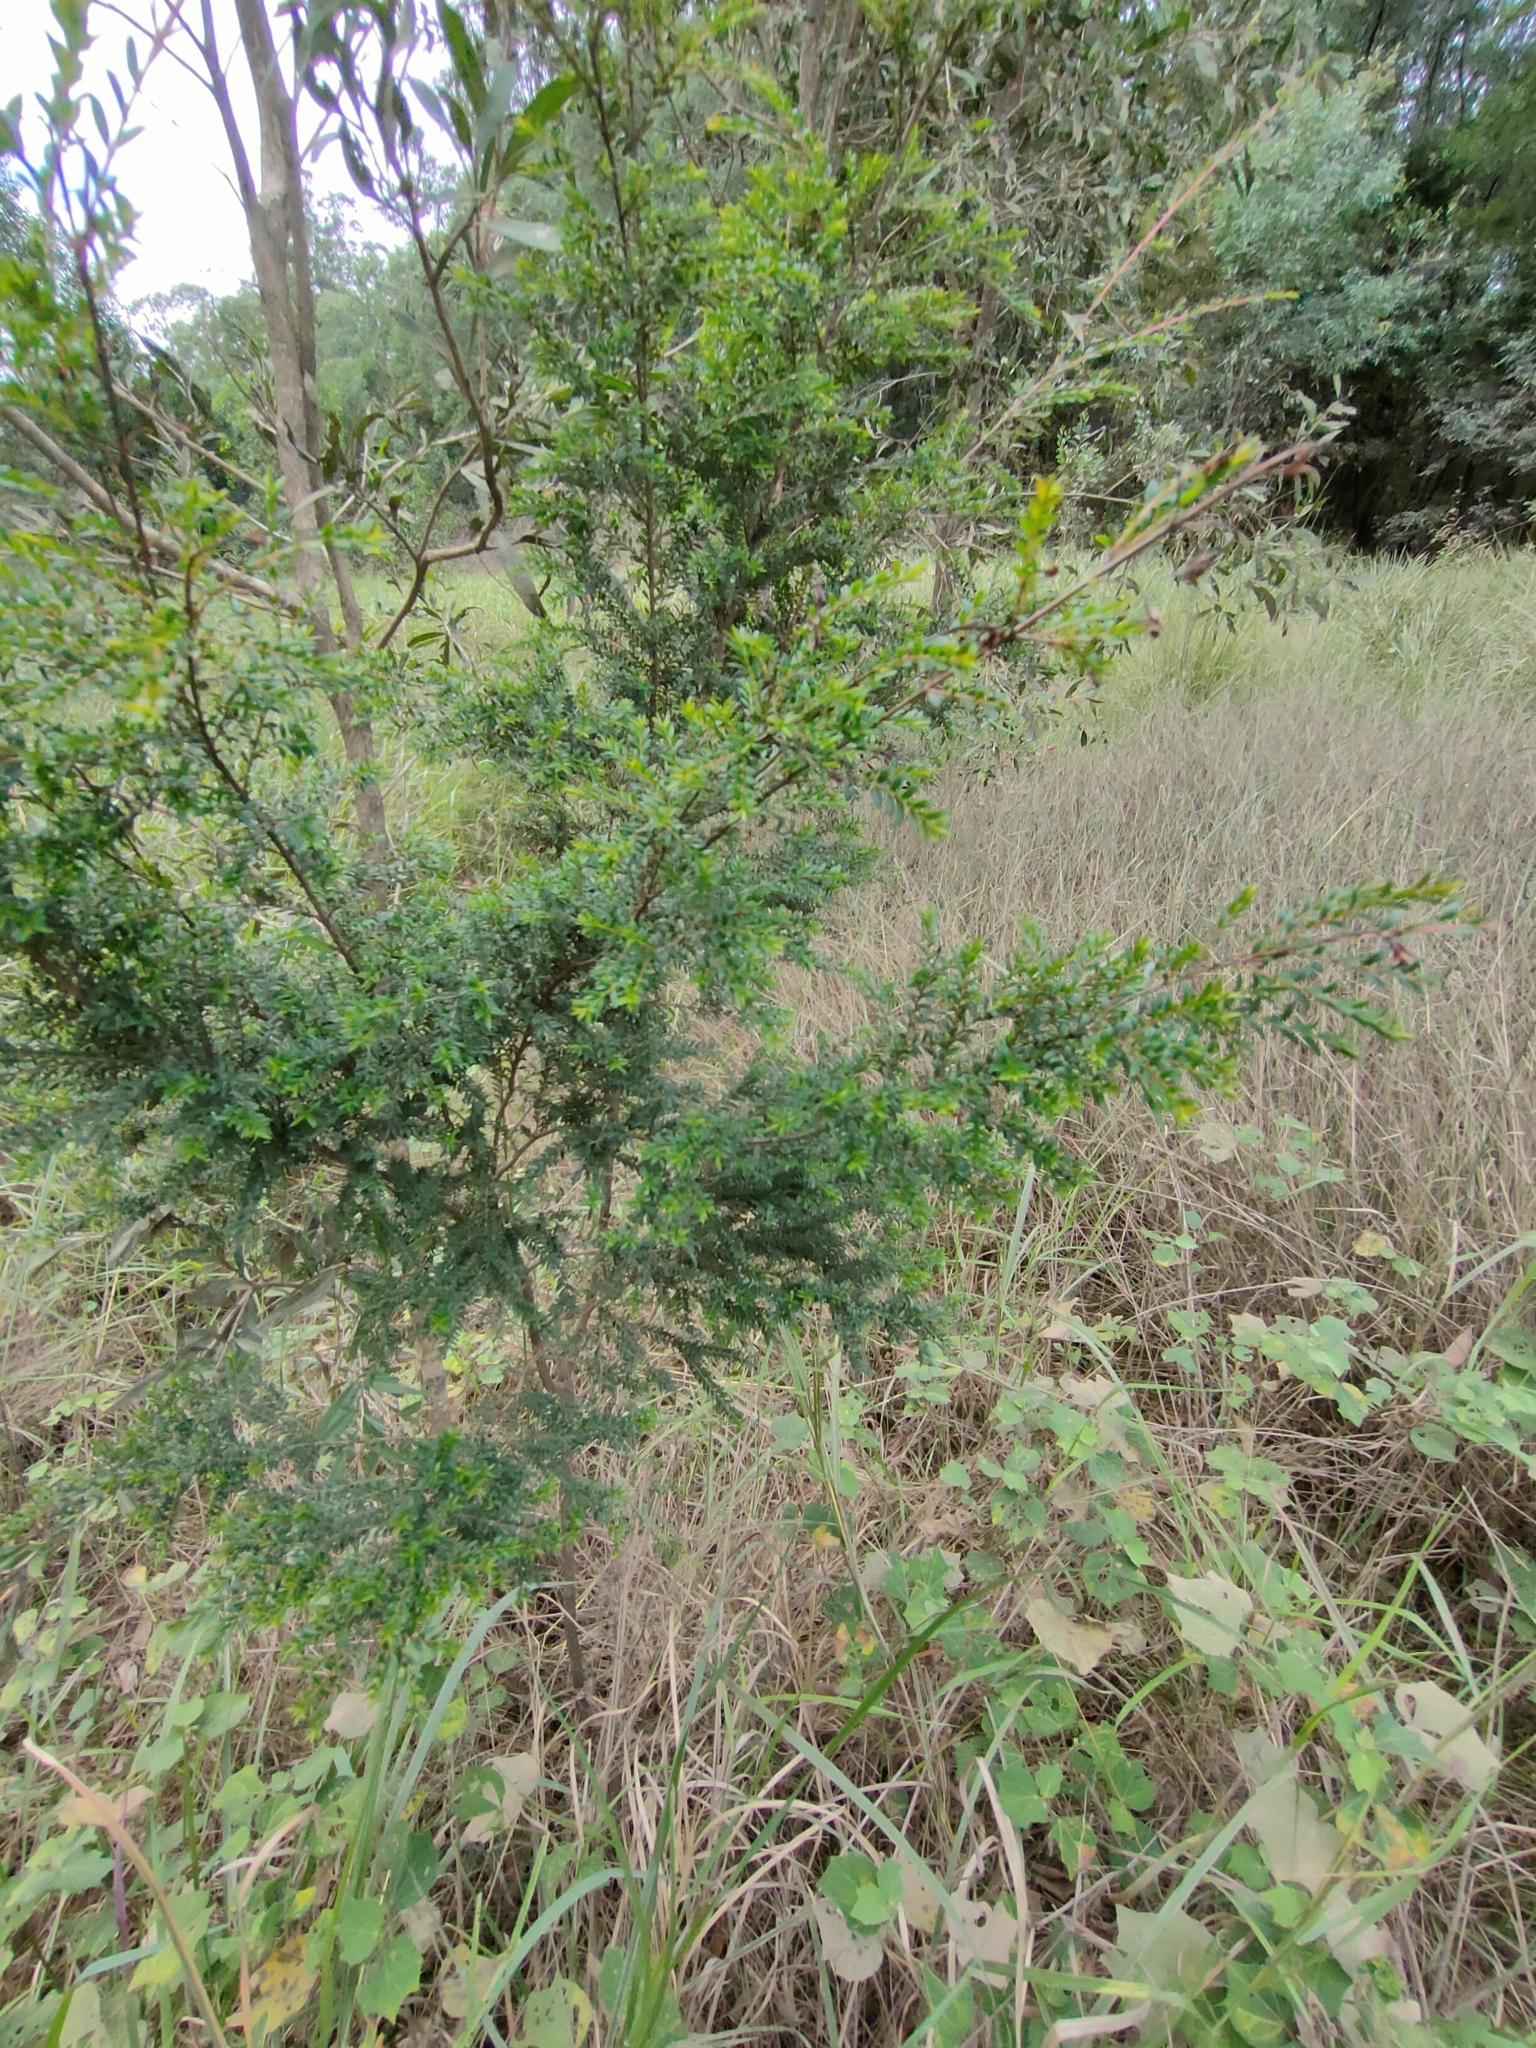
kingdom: Plantae
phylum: Tracheophyta
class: Magnoliopsida
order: Myrtales
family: Myrtaceae
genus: Sannantha
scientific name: Sannantha bidwillii
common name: Tall baeckea
